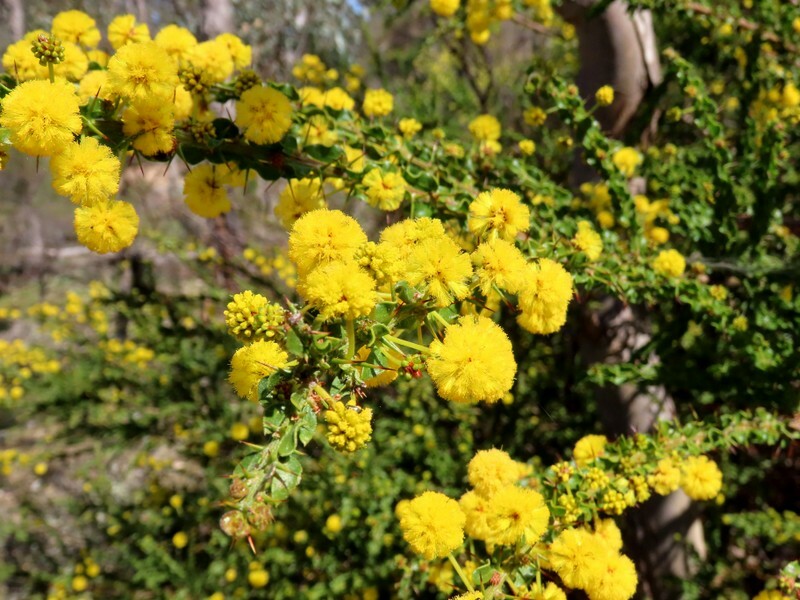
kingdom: Plantae
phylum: Tracheophyta
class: Magnoliopsida
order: Fabales
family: Fabaceae
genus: Acacia
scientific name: Acacia paradoxa
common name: Paradox acacia
